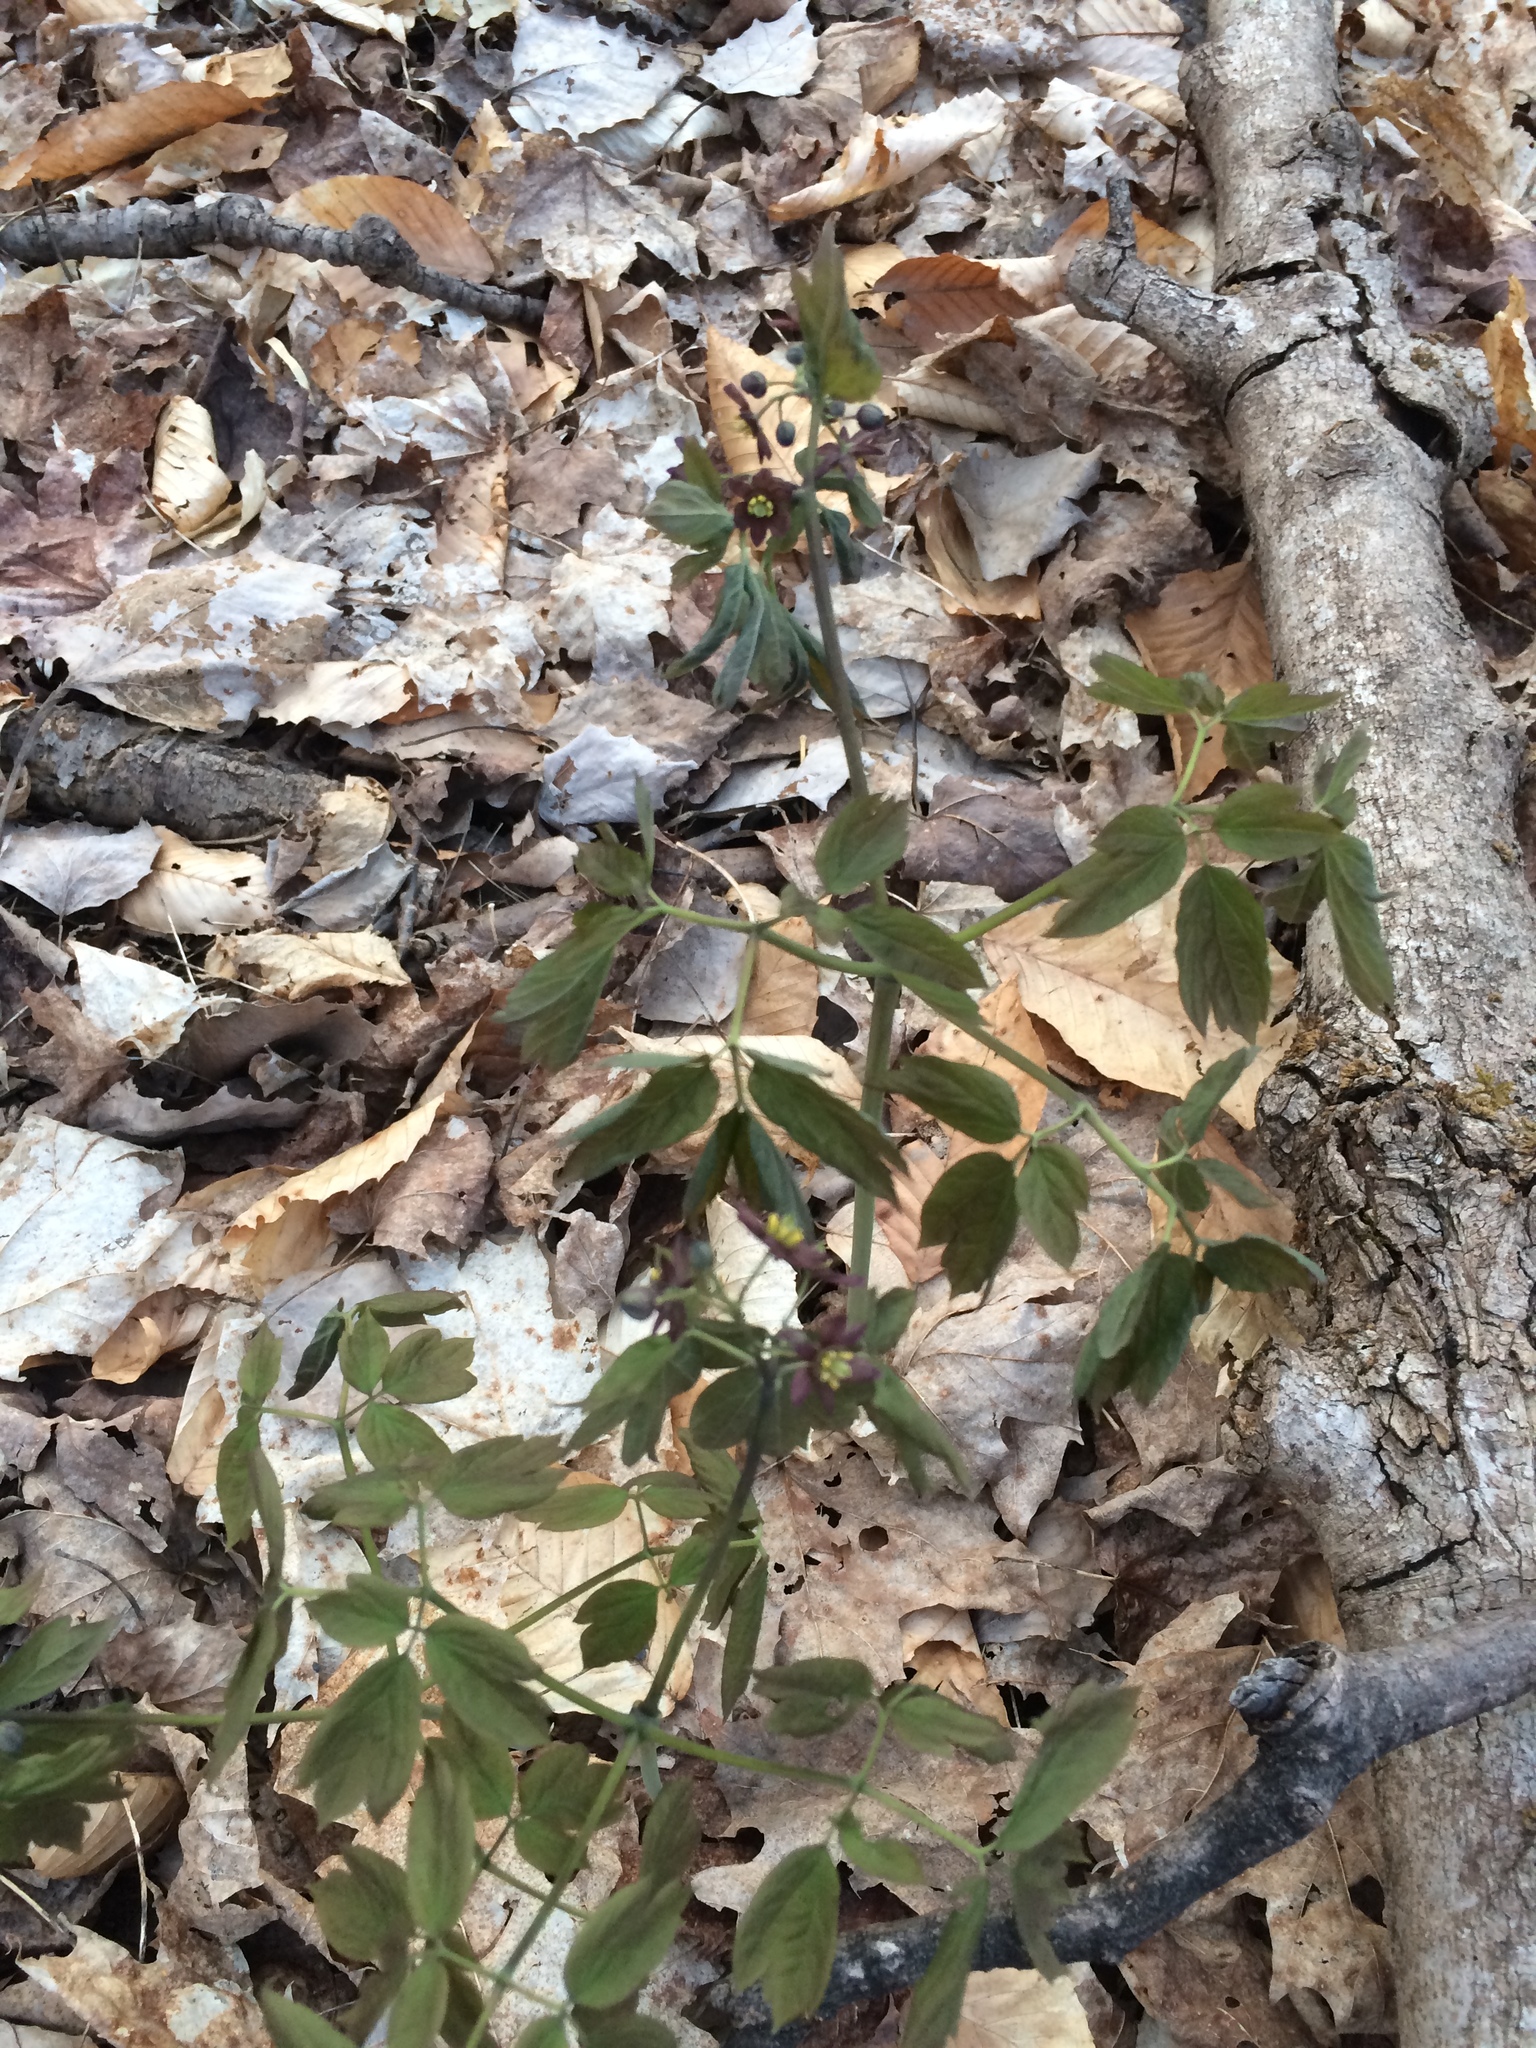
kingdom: Plantae
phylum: Tracheophyta
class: Magnoliopsida
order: Ranunculales
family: Berberidaceae
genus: Caulophyllum
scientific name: Caulophyllum giganteum
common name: Blue cohosh
